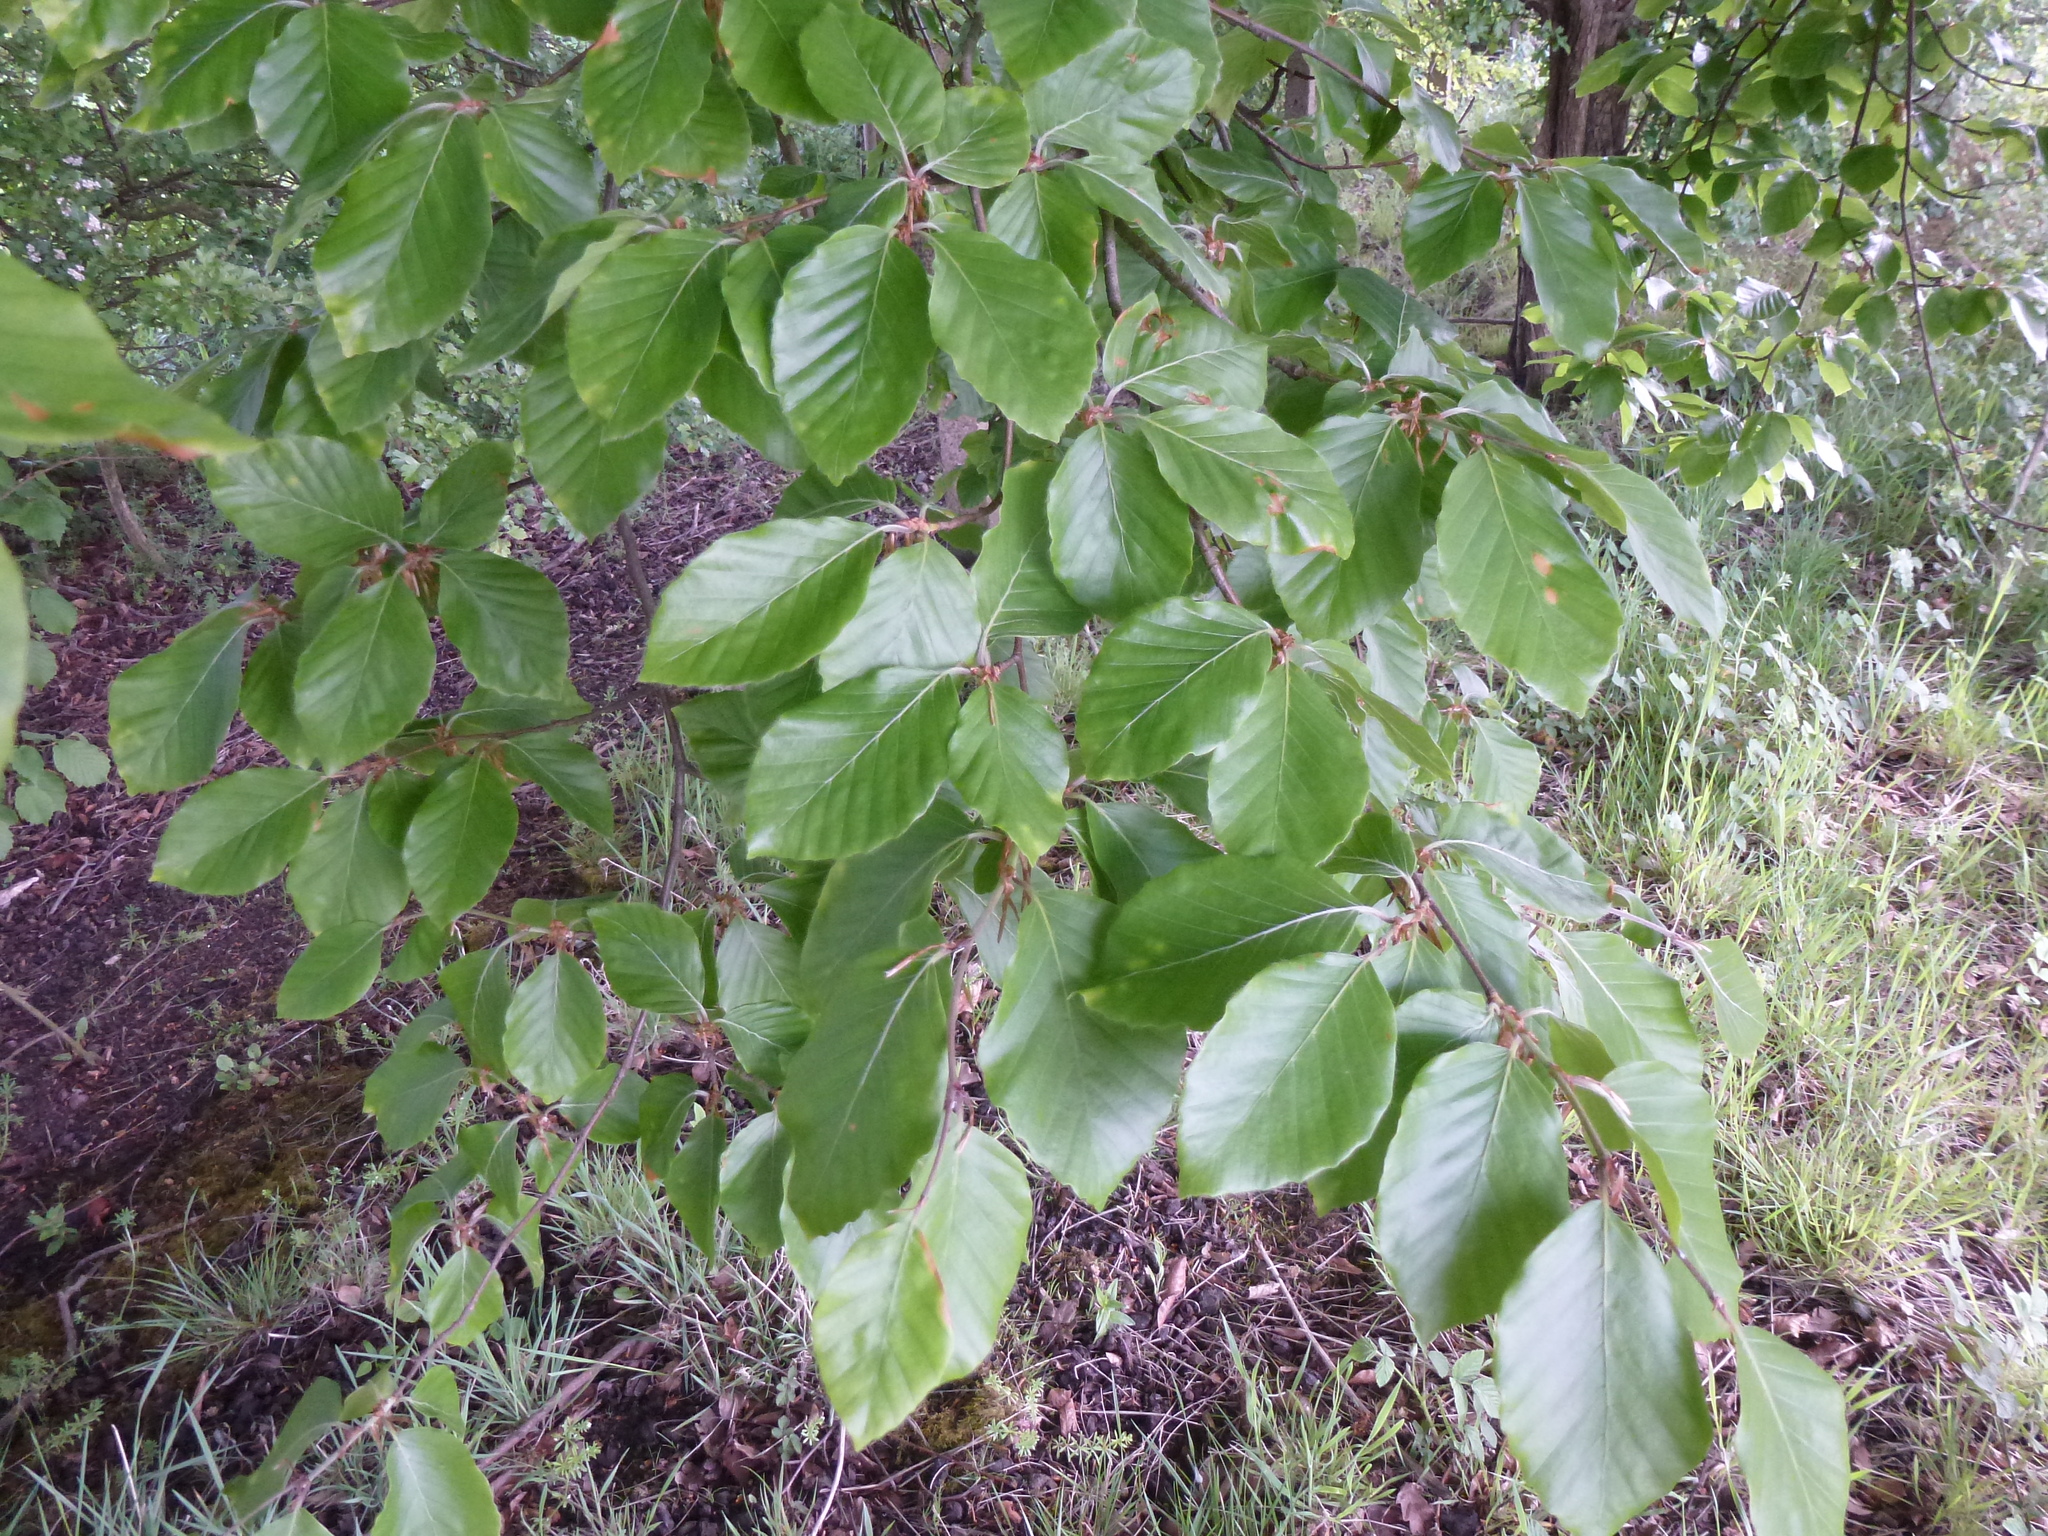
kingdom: Plantae
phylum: Tracheophyta
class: Magnoliopsida
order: Fagales
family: Fagaceae
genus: Fagus
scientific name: Fagus sylvatica
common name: Beech
